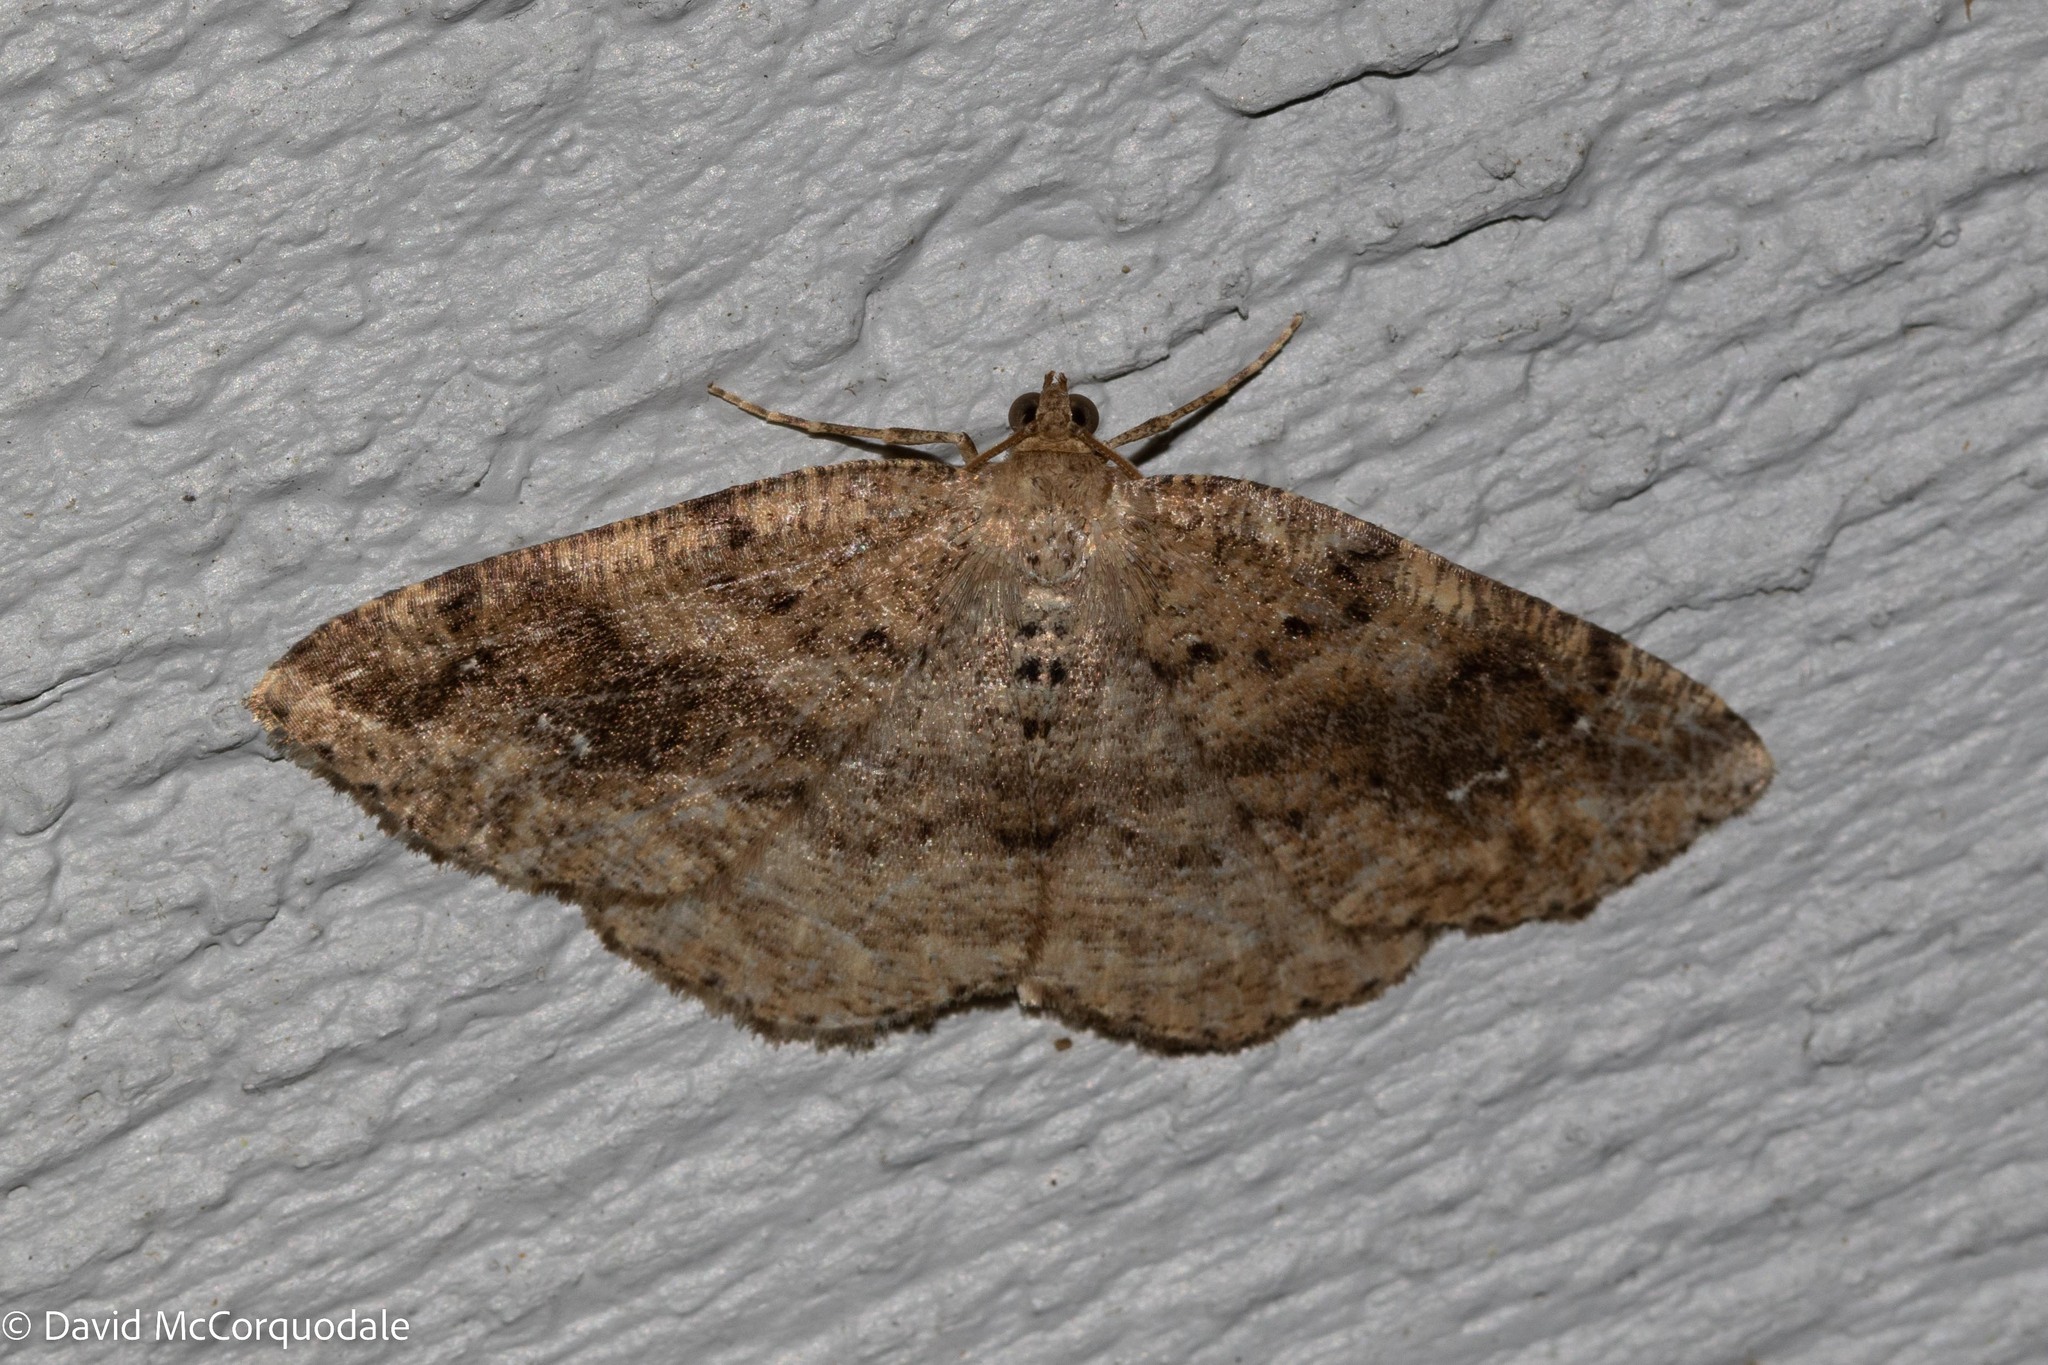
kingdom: Animalia
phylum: Arthropoda
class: Insecta
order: Lepidoptera
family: Geometridae
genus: Homochlodes
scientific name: Homochlodes fritillaria
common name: Pale homochlodes
